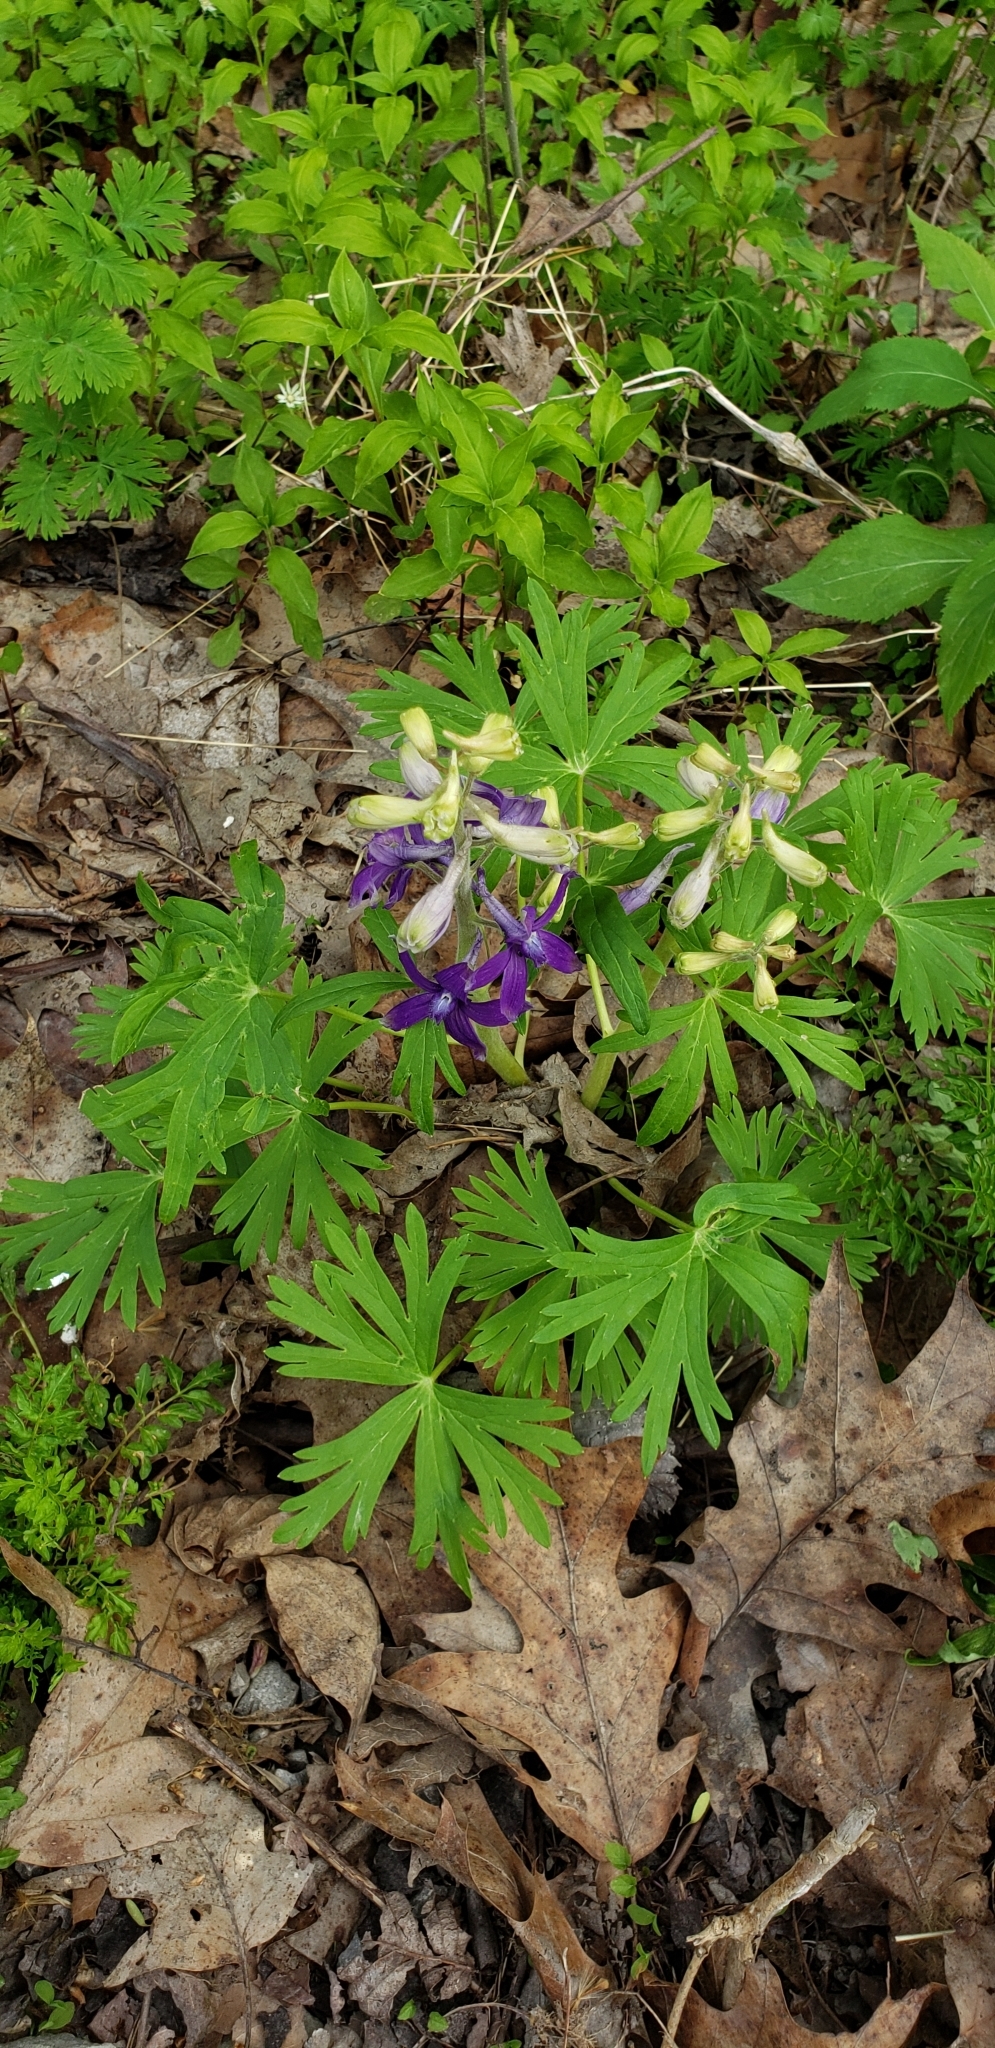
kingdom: Plantae
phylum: Tracheophyta
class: Magnoliopsida
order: Ranunculales
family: Ranunculaceae
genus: Delphinium
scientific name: Delphinium tricorne
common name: Dwarf larkspur
